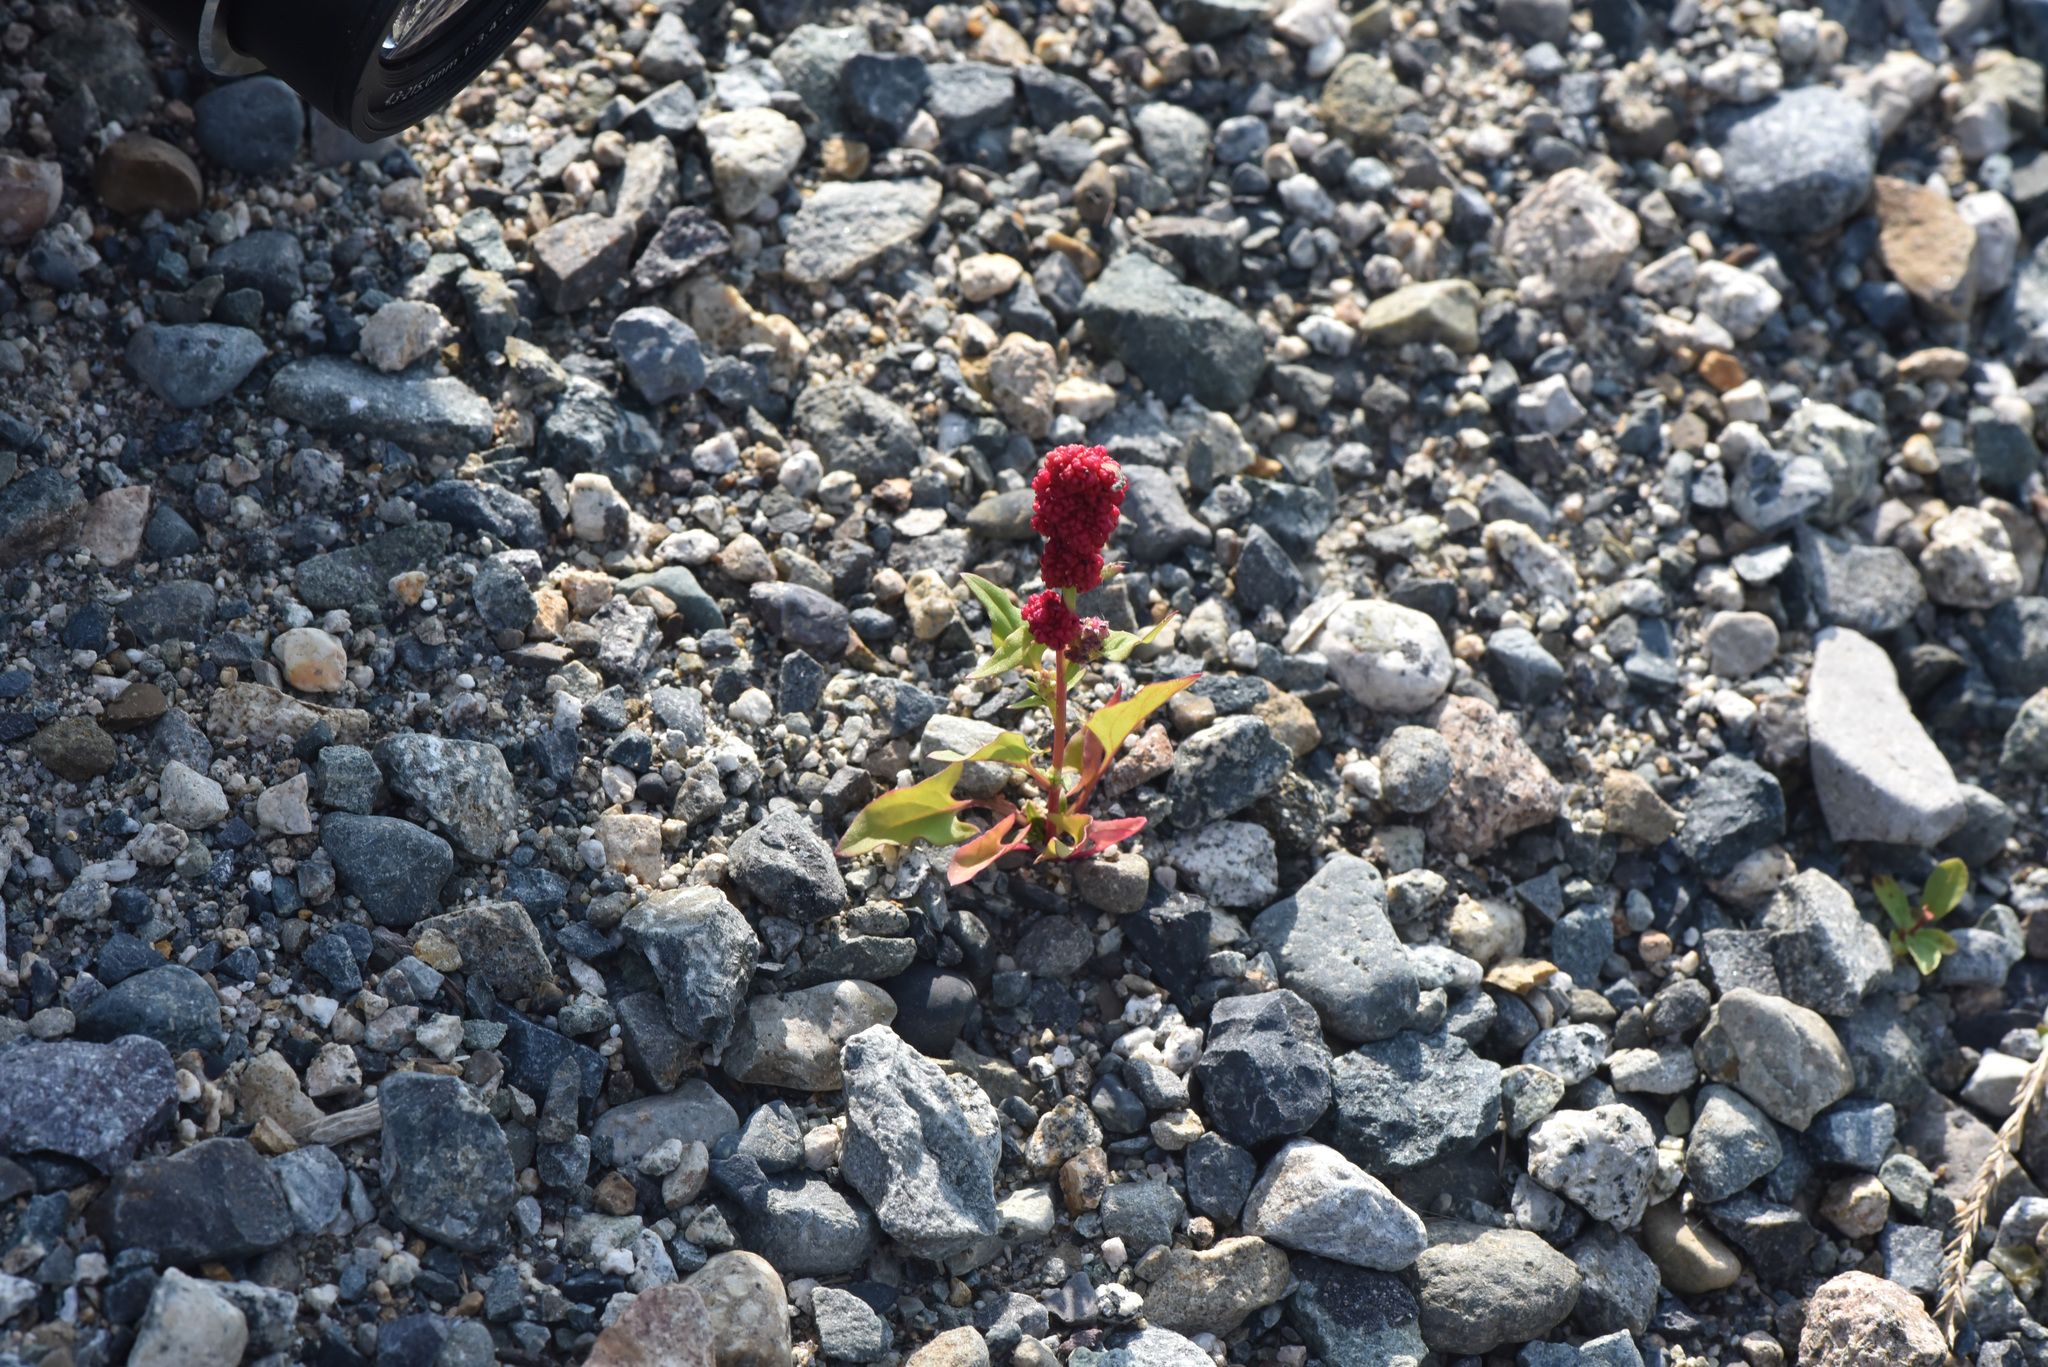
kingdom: Plantae
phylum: Tracheophyta
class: Magnoliopsida
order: Caryophyllales
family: Amaranthaceae
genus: Blitum
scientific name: Blitum capitatum
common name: Strawberry-blight
